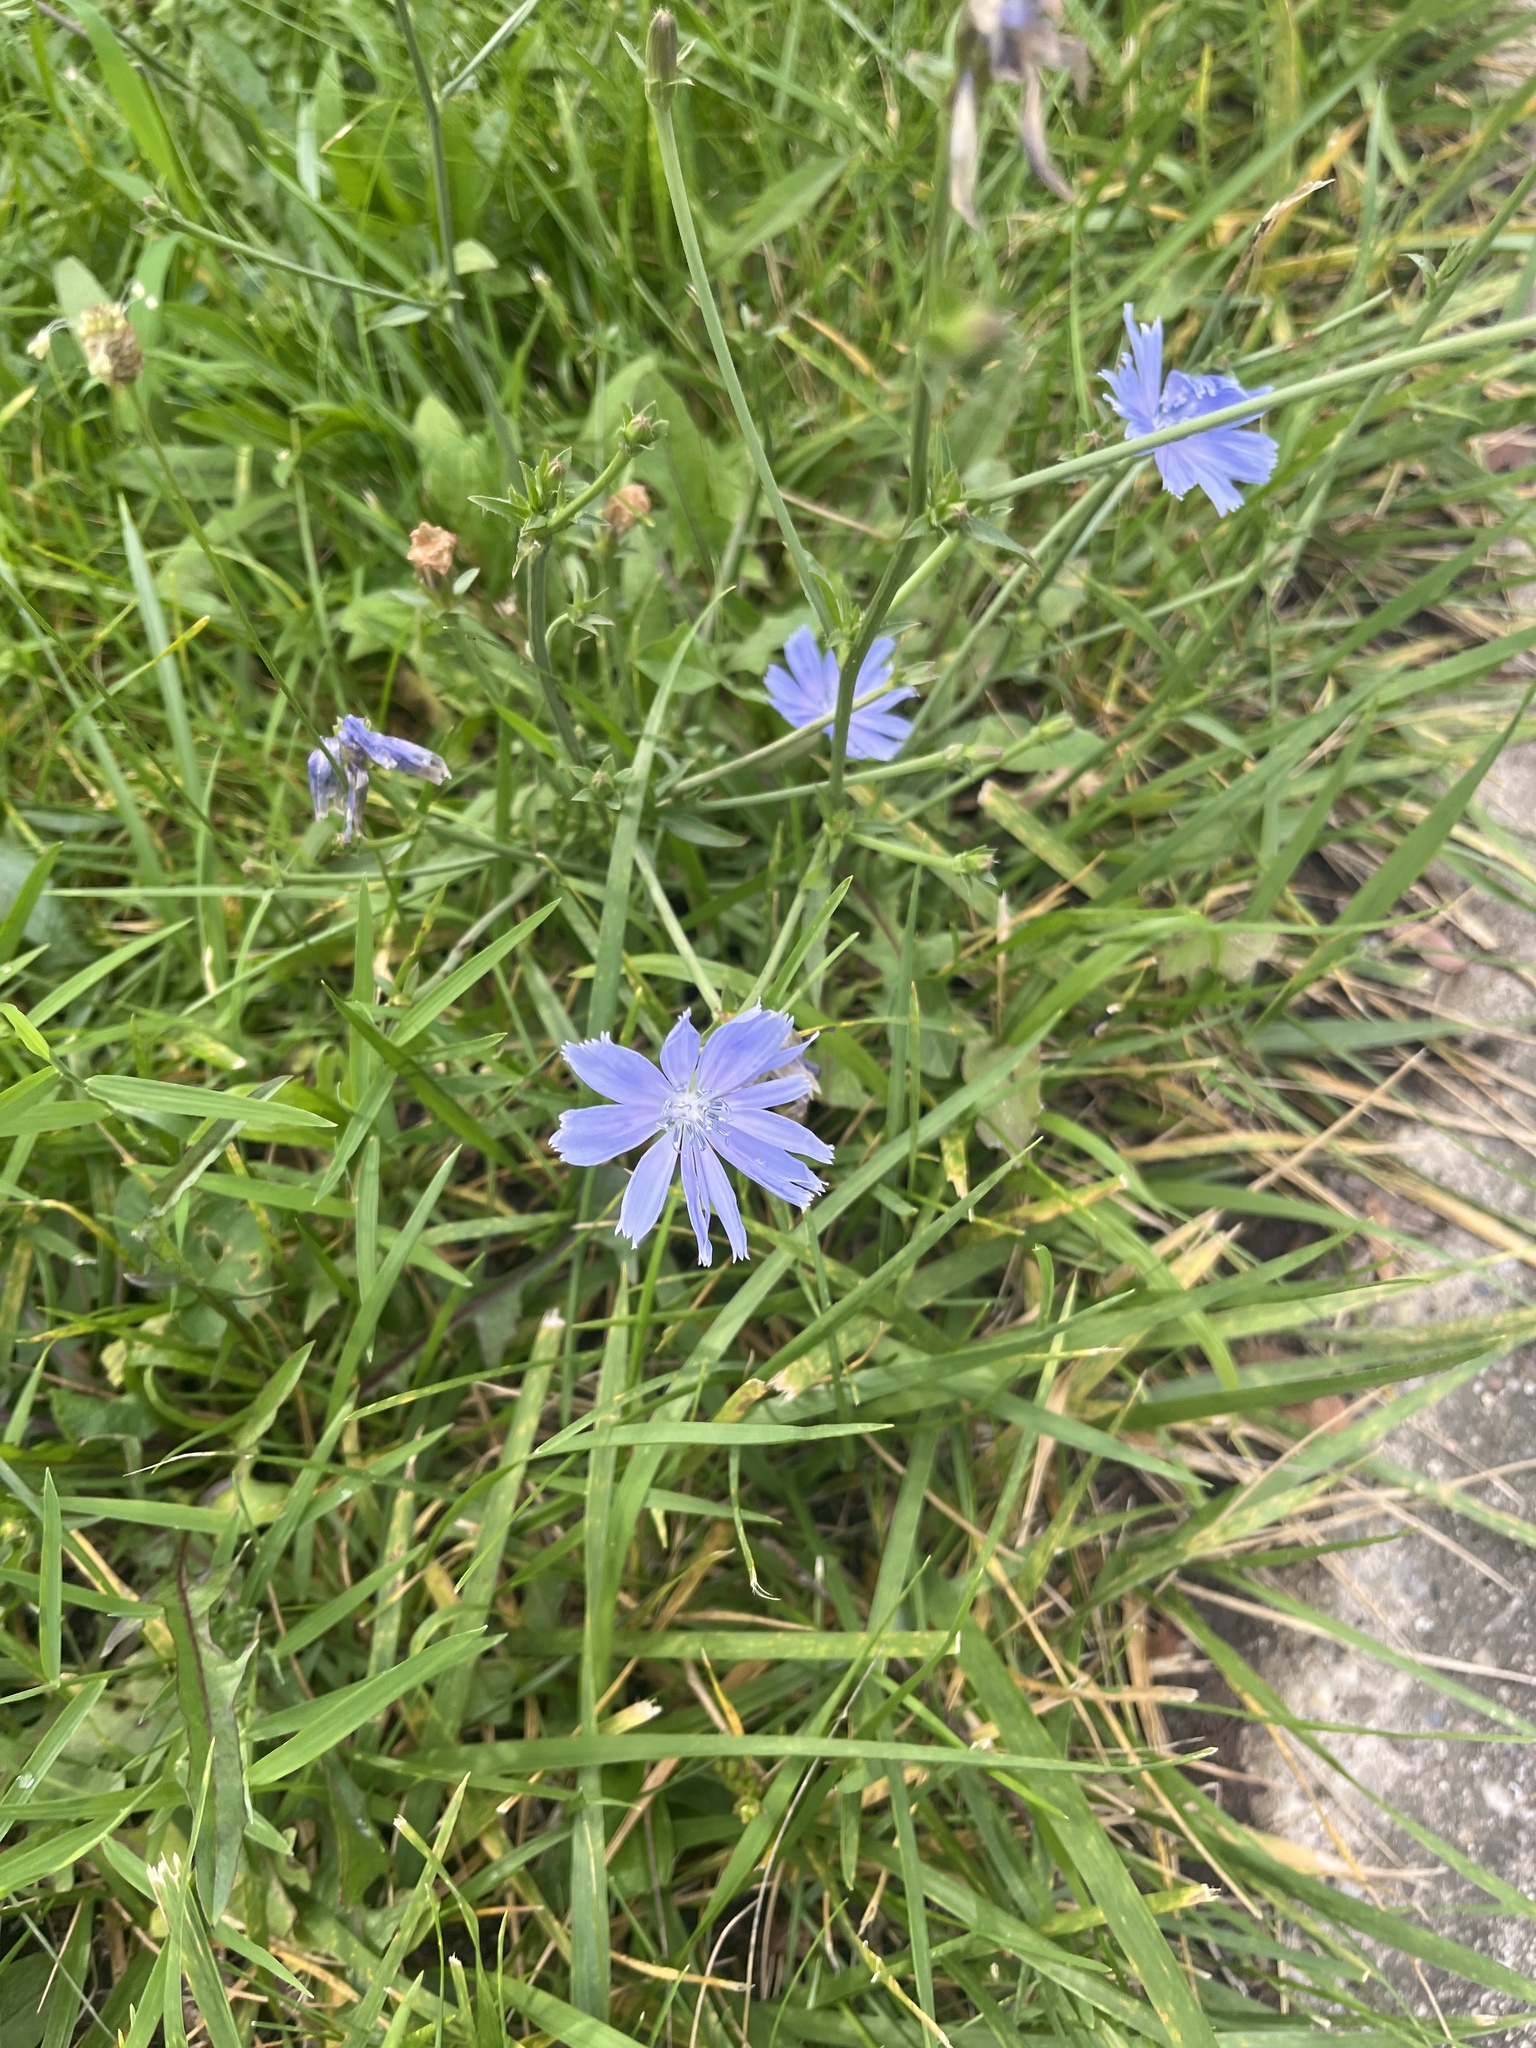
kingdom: Plantae
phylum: Tracheophyta
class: Magnoliopsida
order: Asterales
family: Asteraceae
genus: Cichorium
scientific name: Cichorium intybus
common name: Chicory
